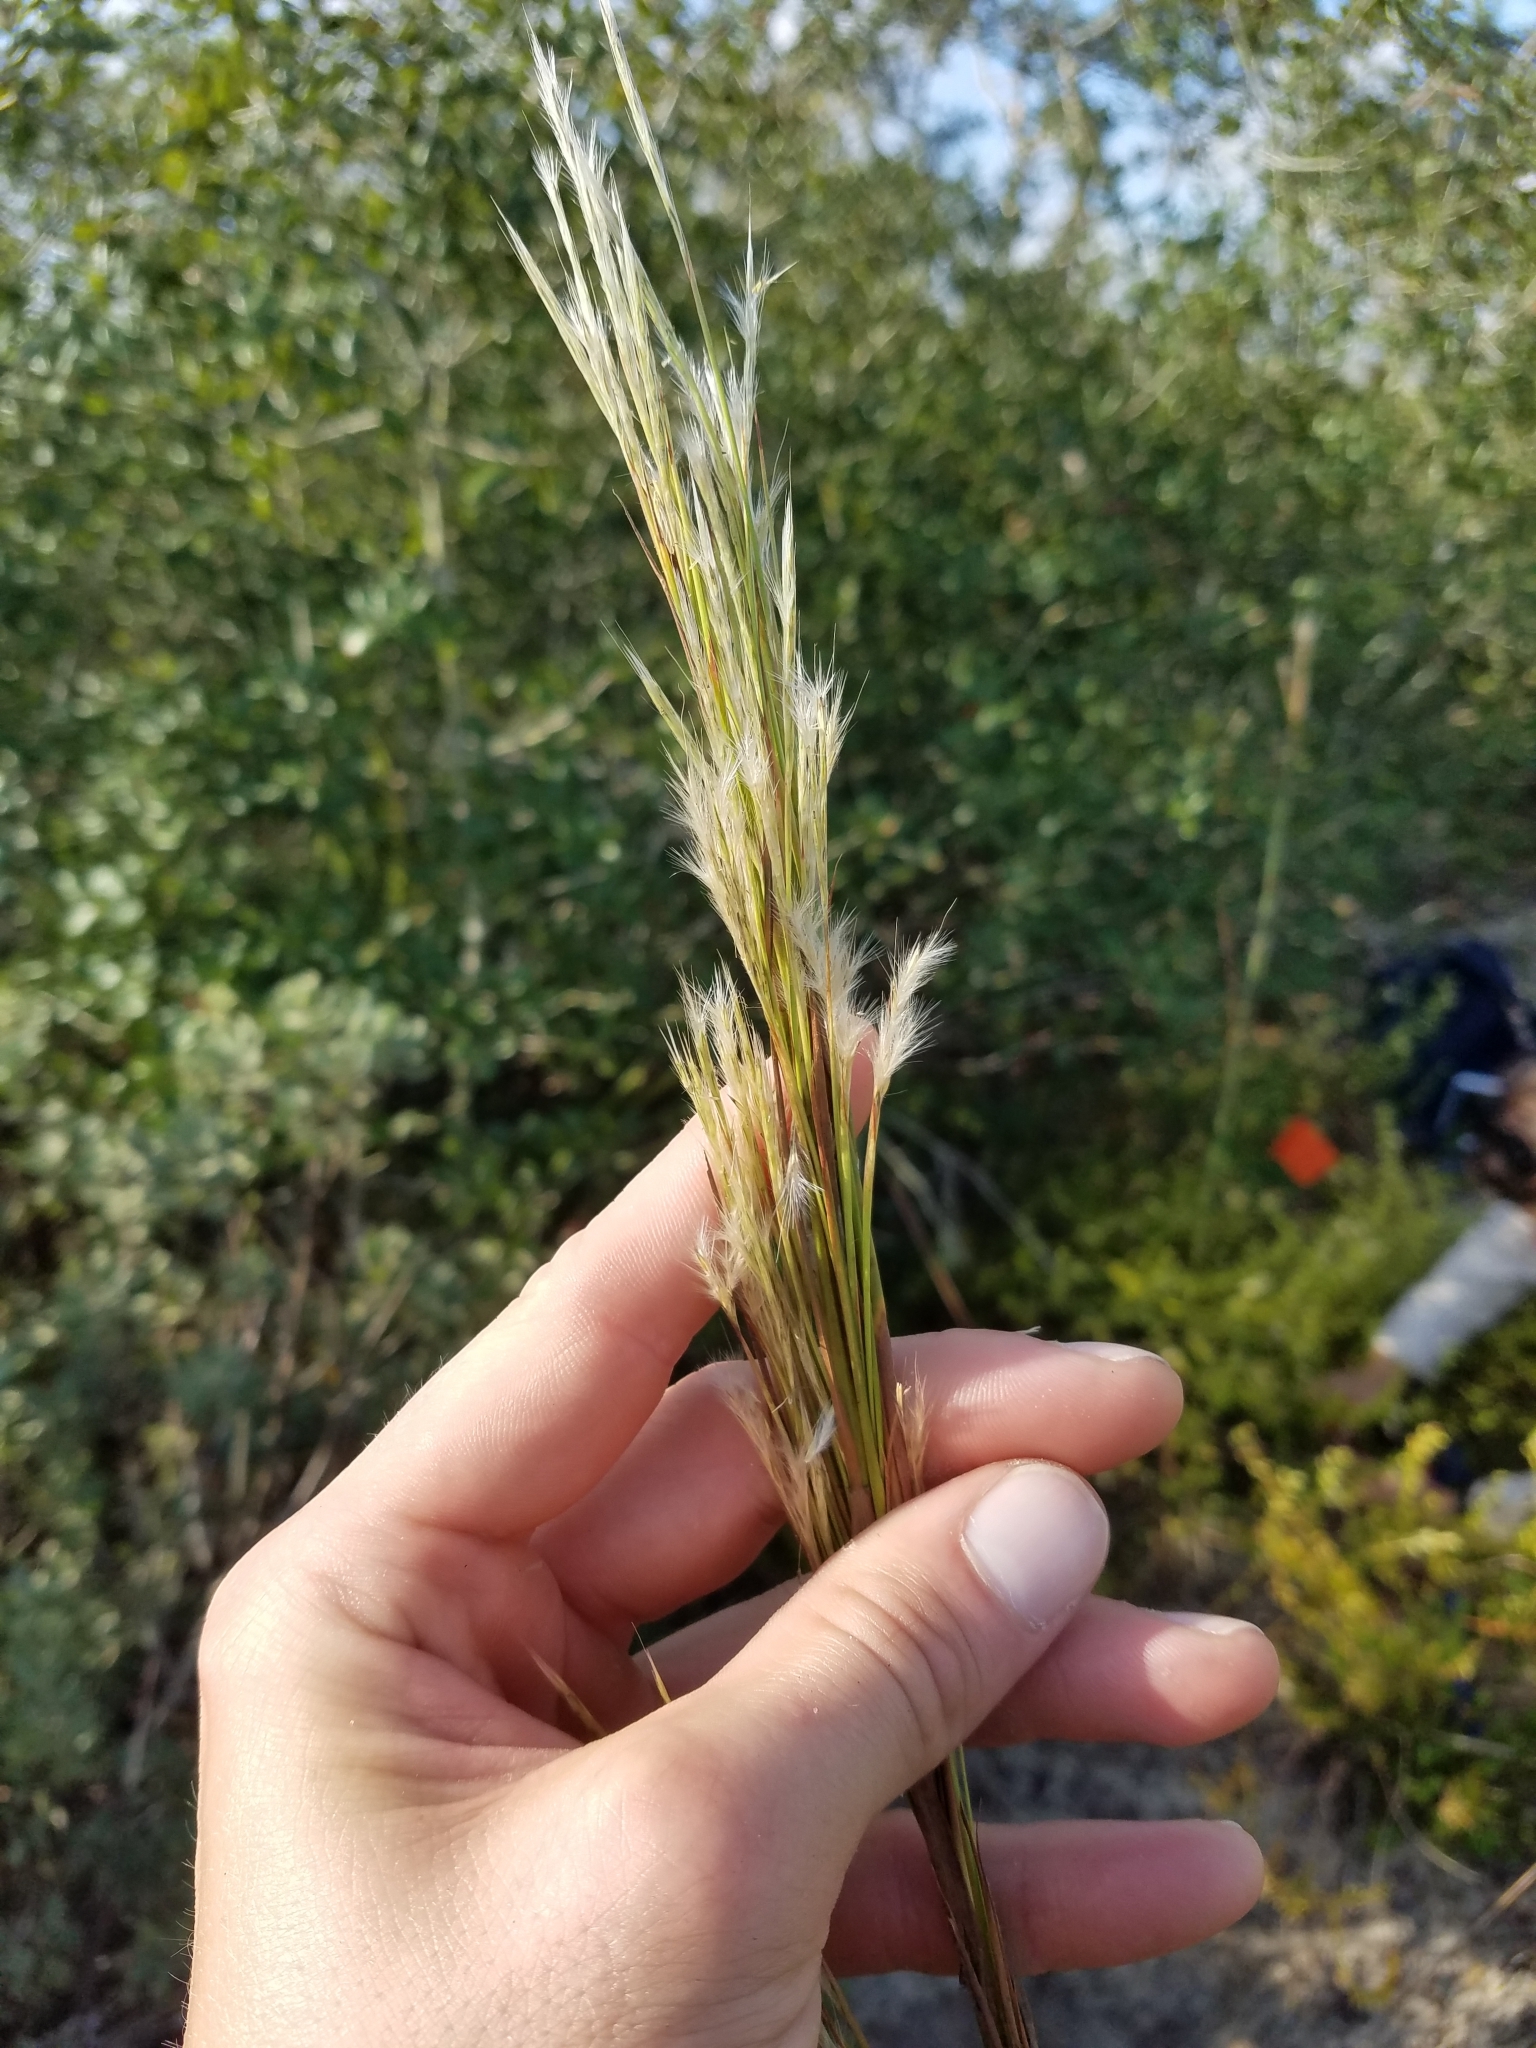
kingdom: Plantae
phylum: Tracheophyta
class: Liliopsida
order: Poales
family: Poaceae
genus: Andropogon
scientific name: Andropogon floridanus
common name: Florida bluestem
